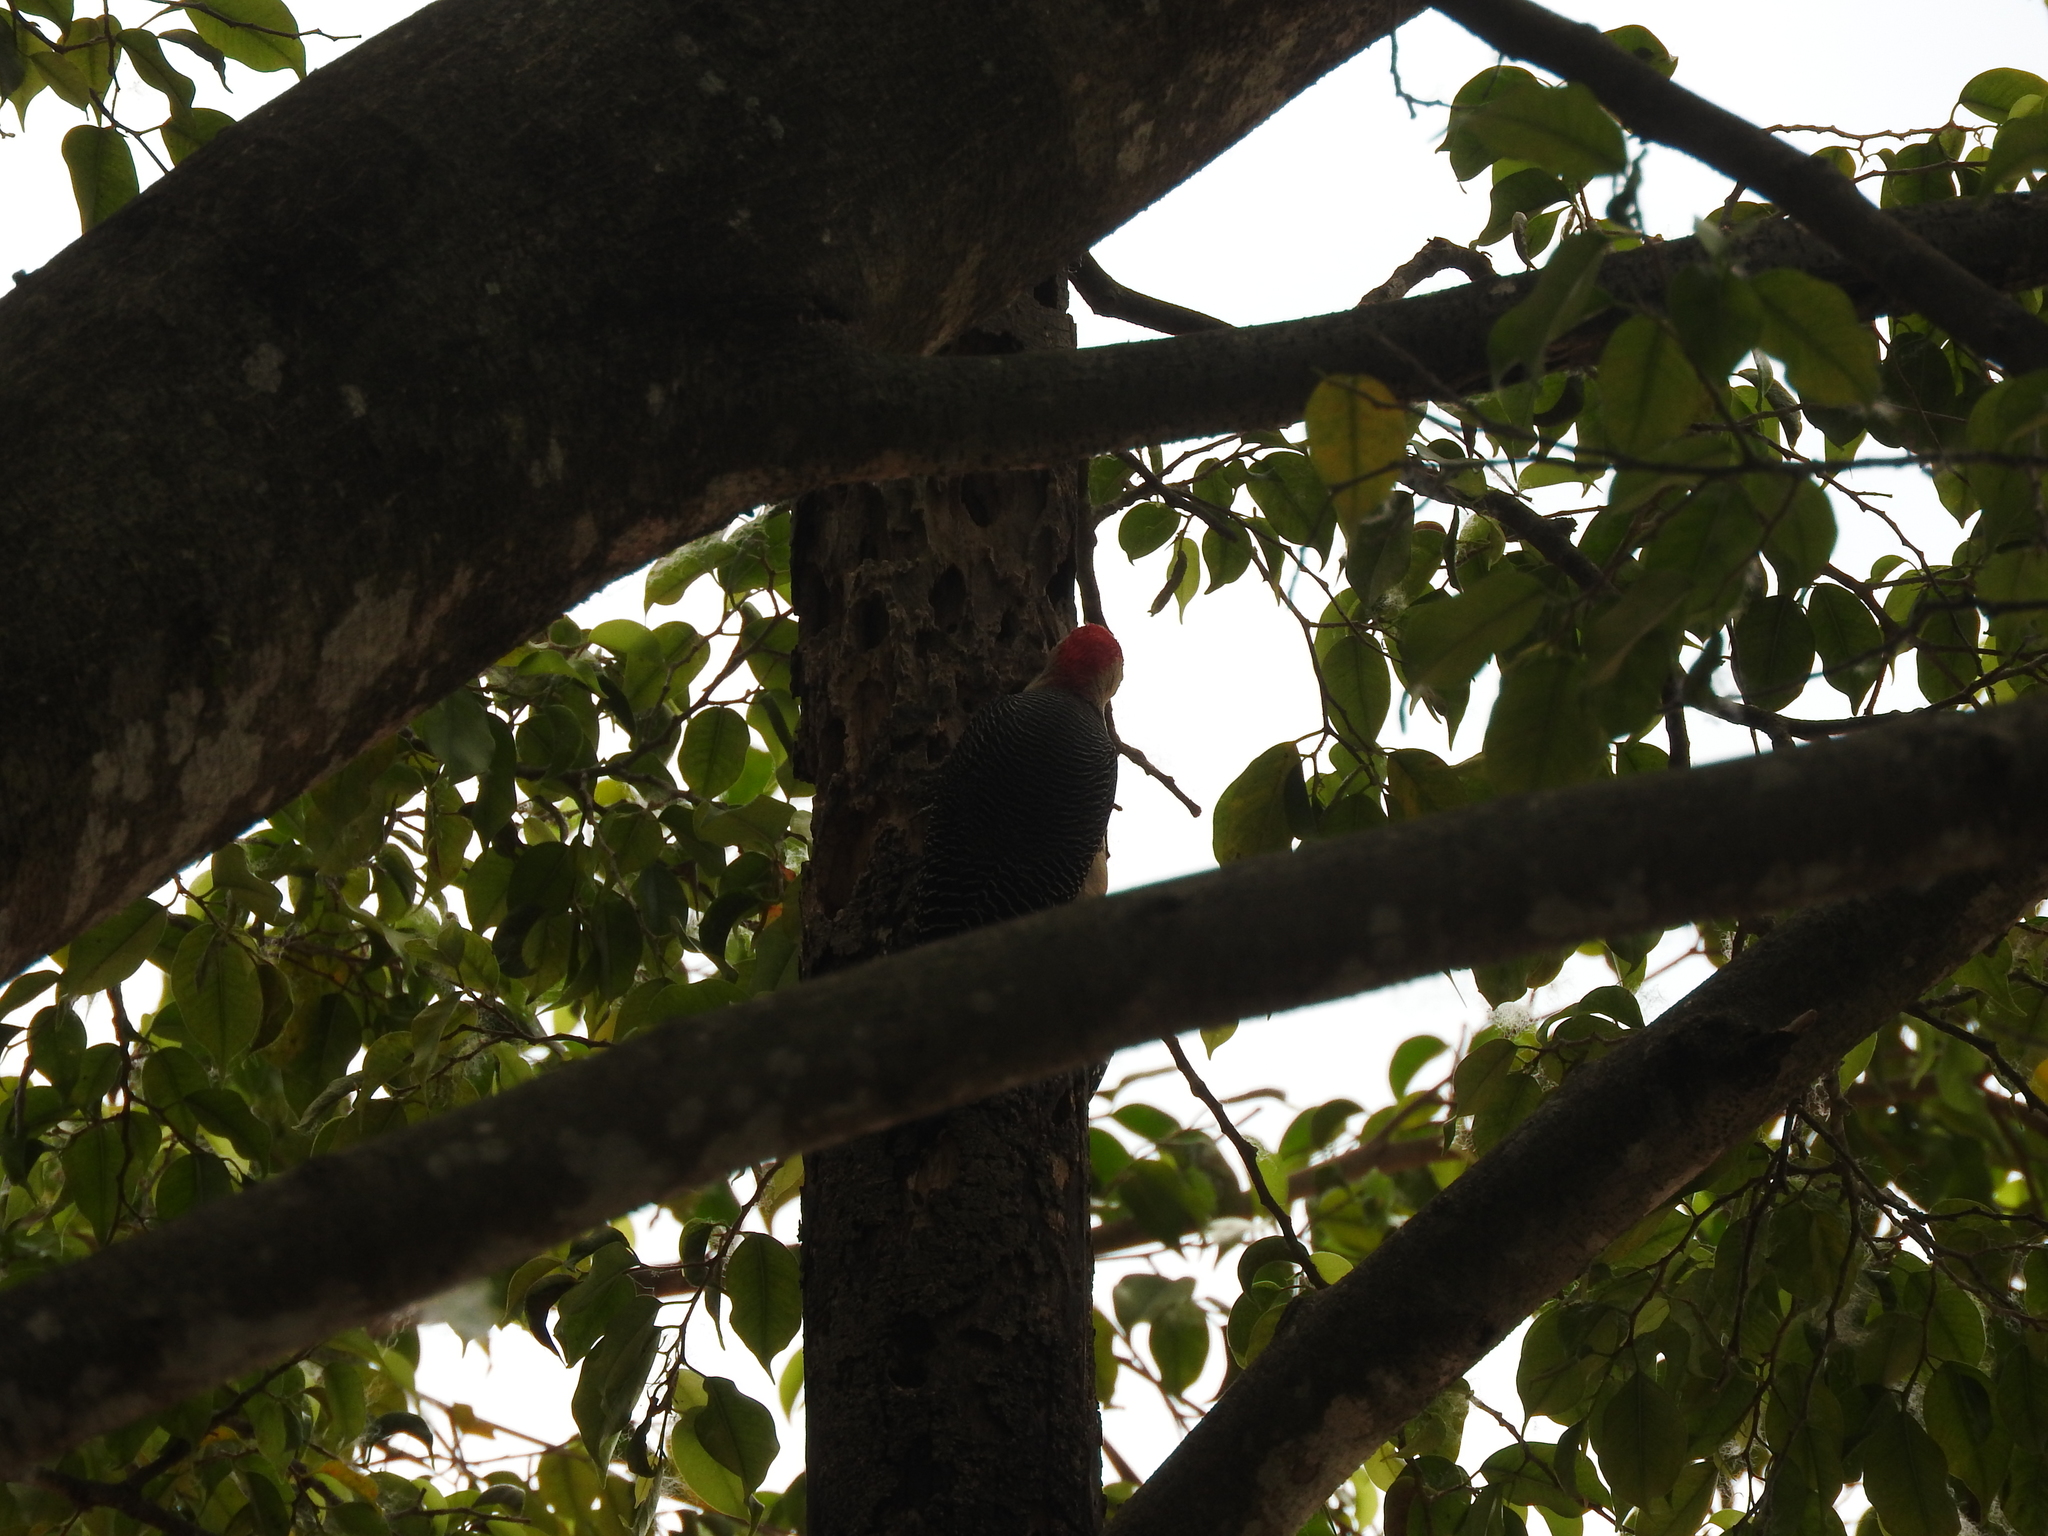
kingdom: Animalia
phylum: Chordata
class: Aves
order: Piciformes
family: Picidae
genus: Melanerpes
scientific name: Melanerpes santacruzi
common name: Velasquez's woodpecker
